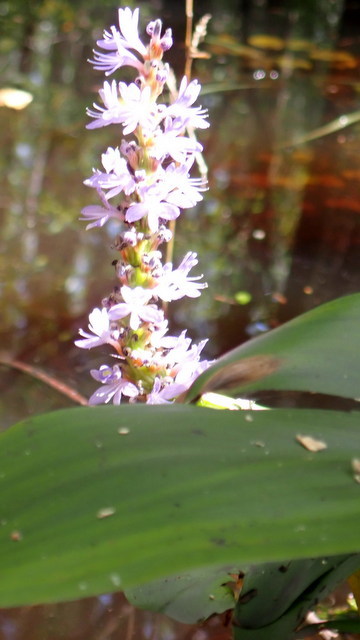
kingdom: Plantae
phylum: Tracheophyta
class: Liliopsida
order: Commelinales
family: Pontederiaceae
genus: Pontederia
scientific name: Pontederia cordata
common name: Pickerelweed
